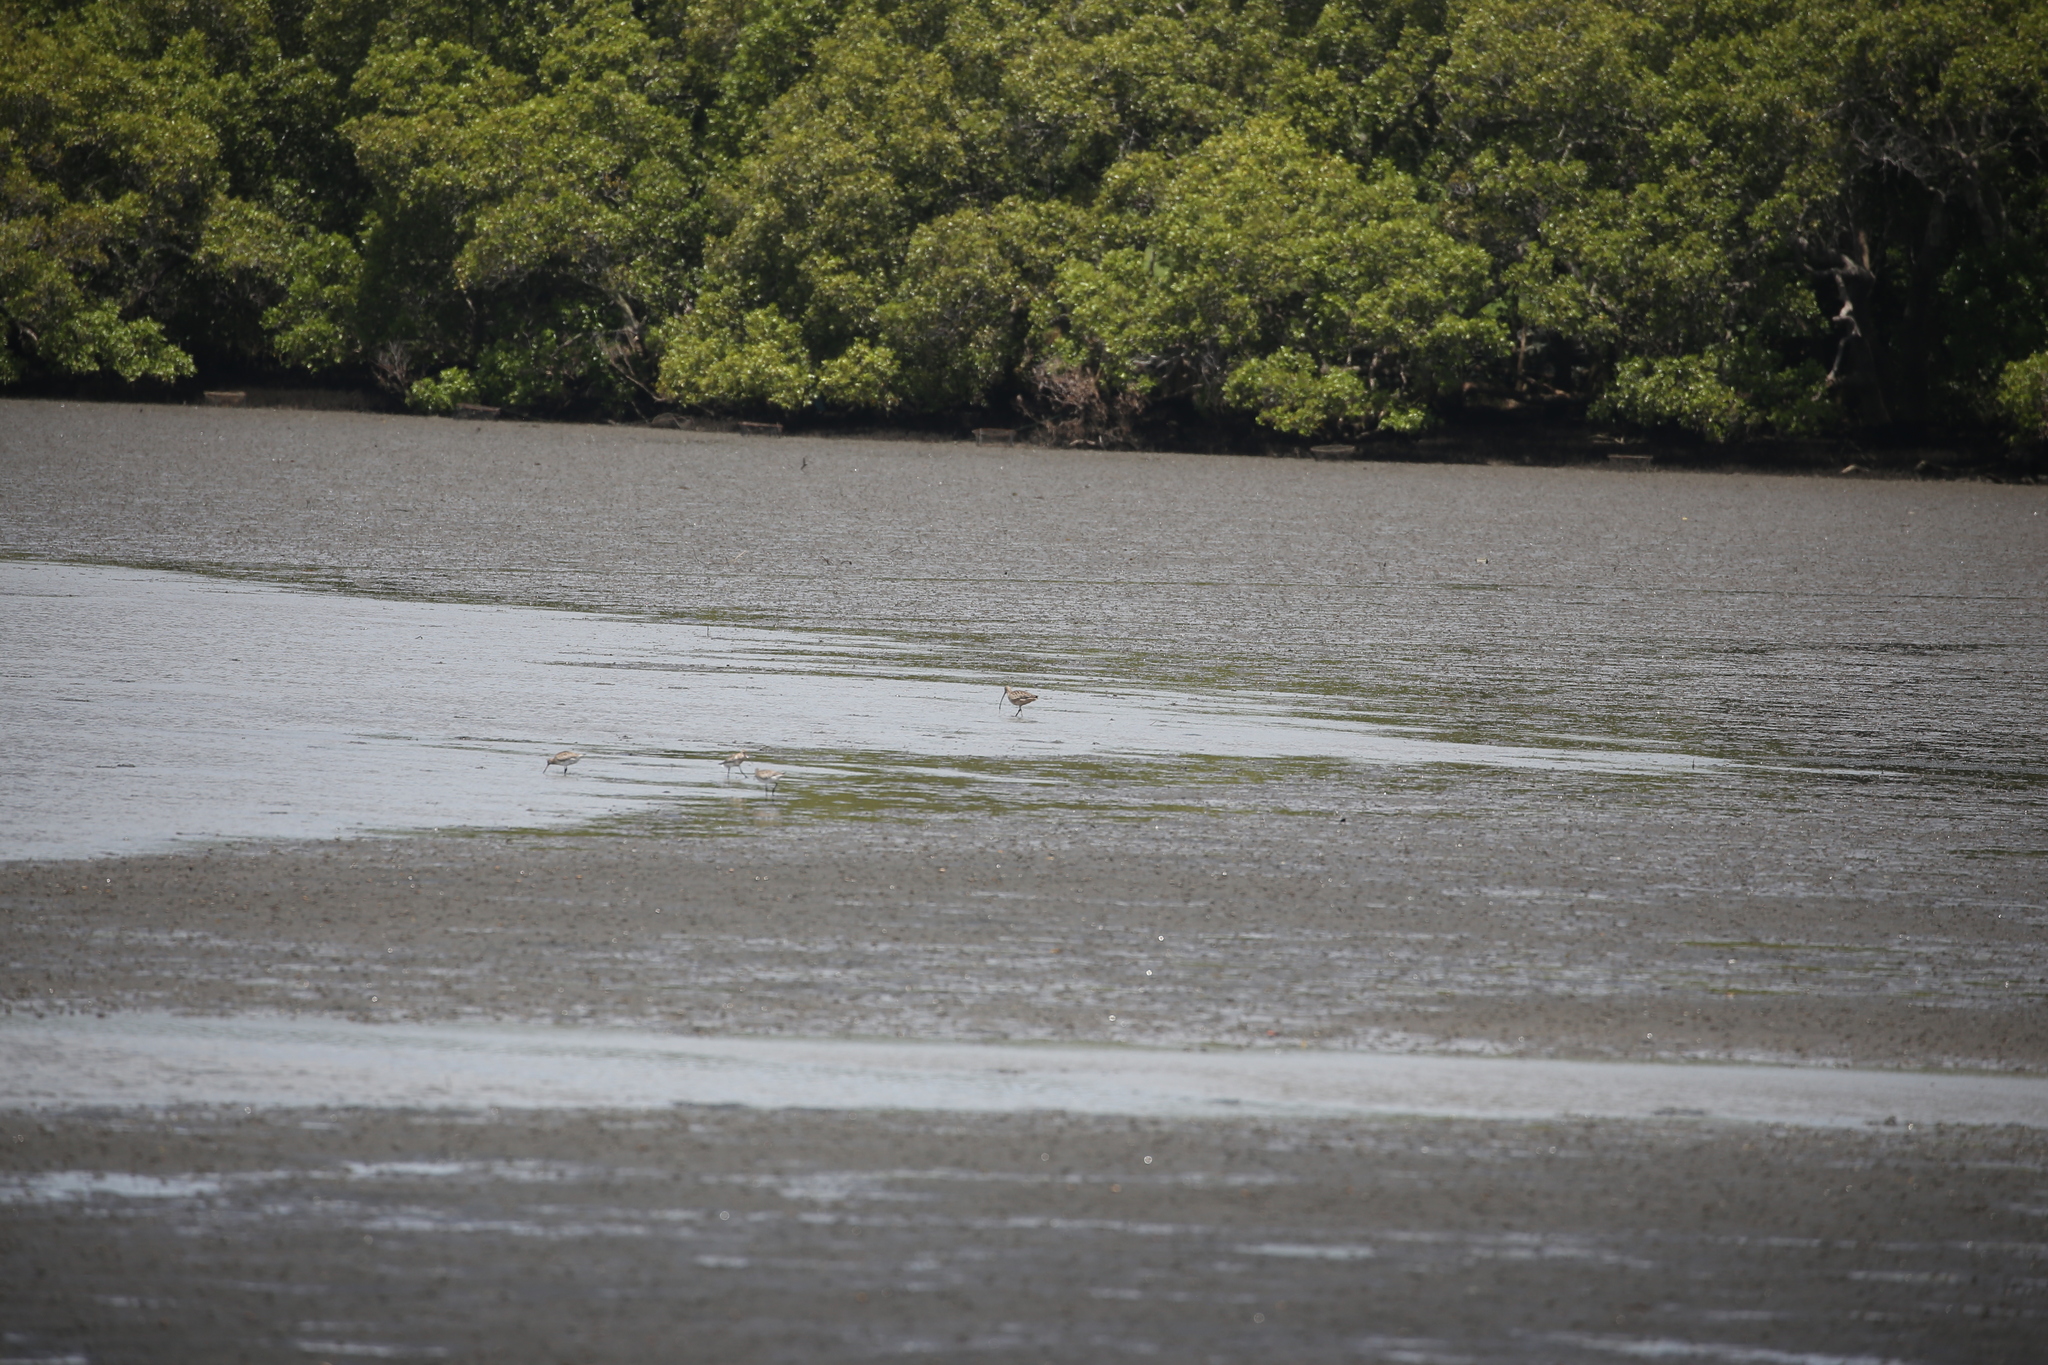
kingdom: Animalia
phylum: Chordata
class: Aves
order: Charadriiformes
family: Scolopacidae
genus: Numenius
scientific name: Numenius madagascariensis
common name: Far eastern curlew
